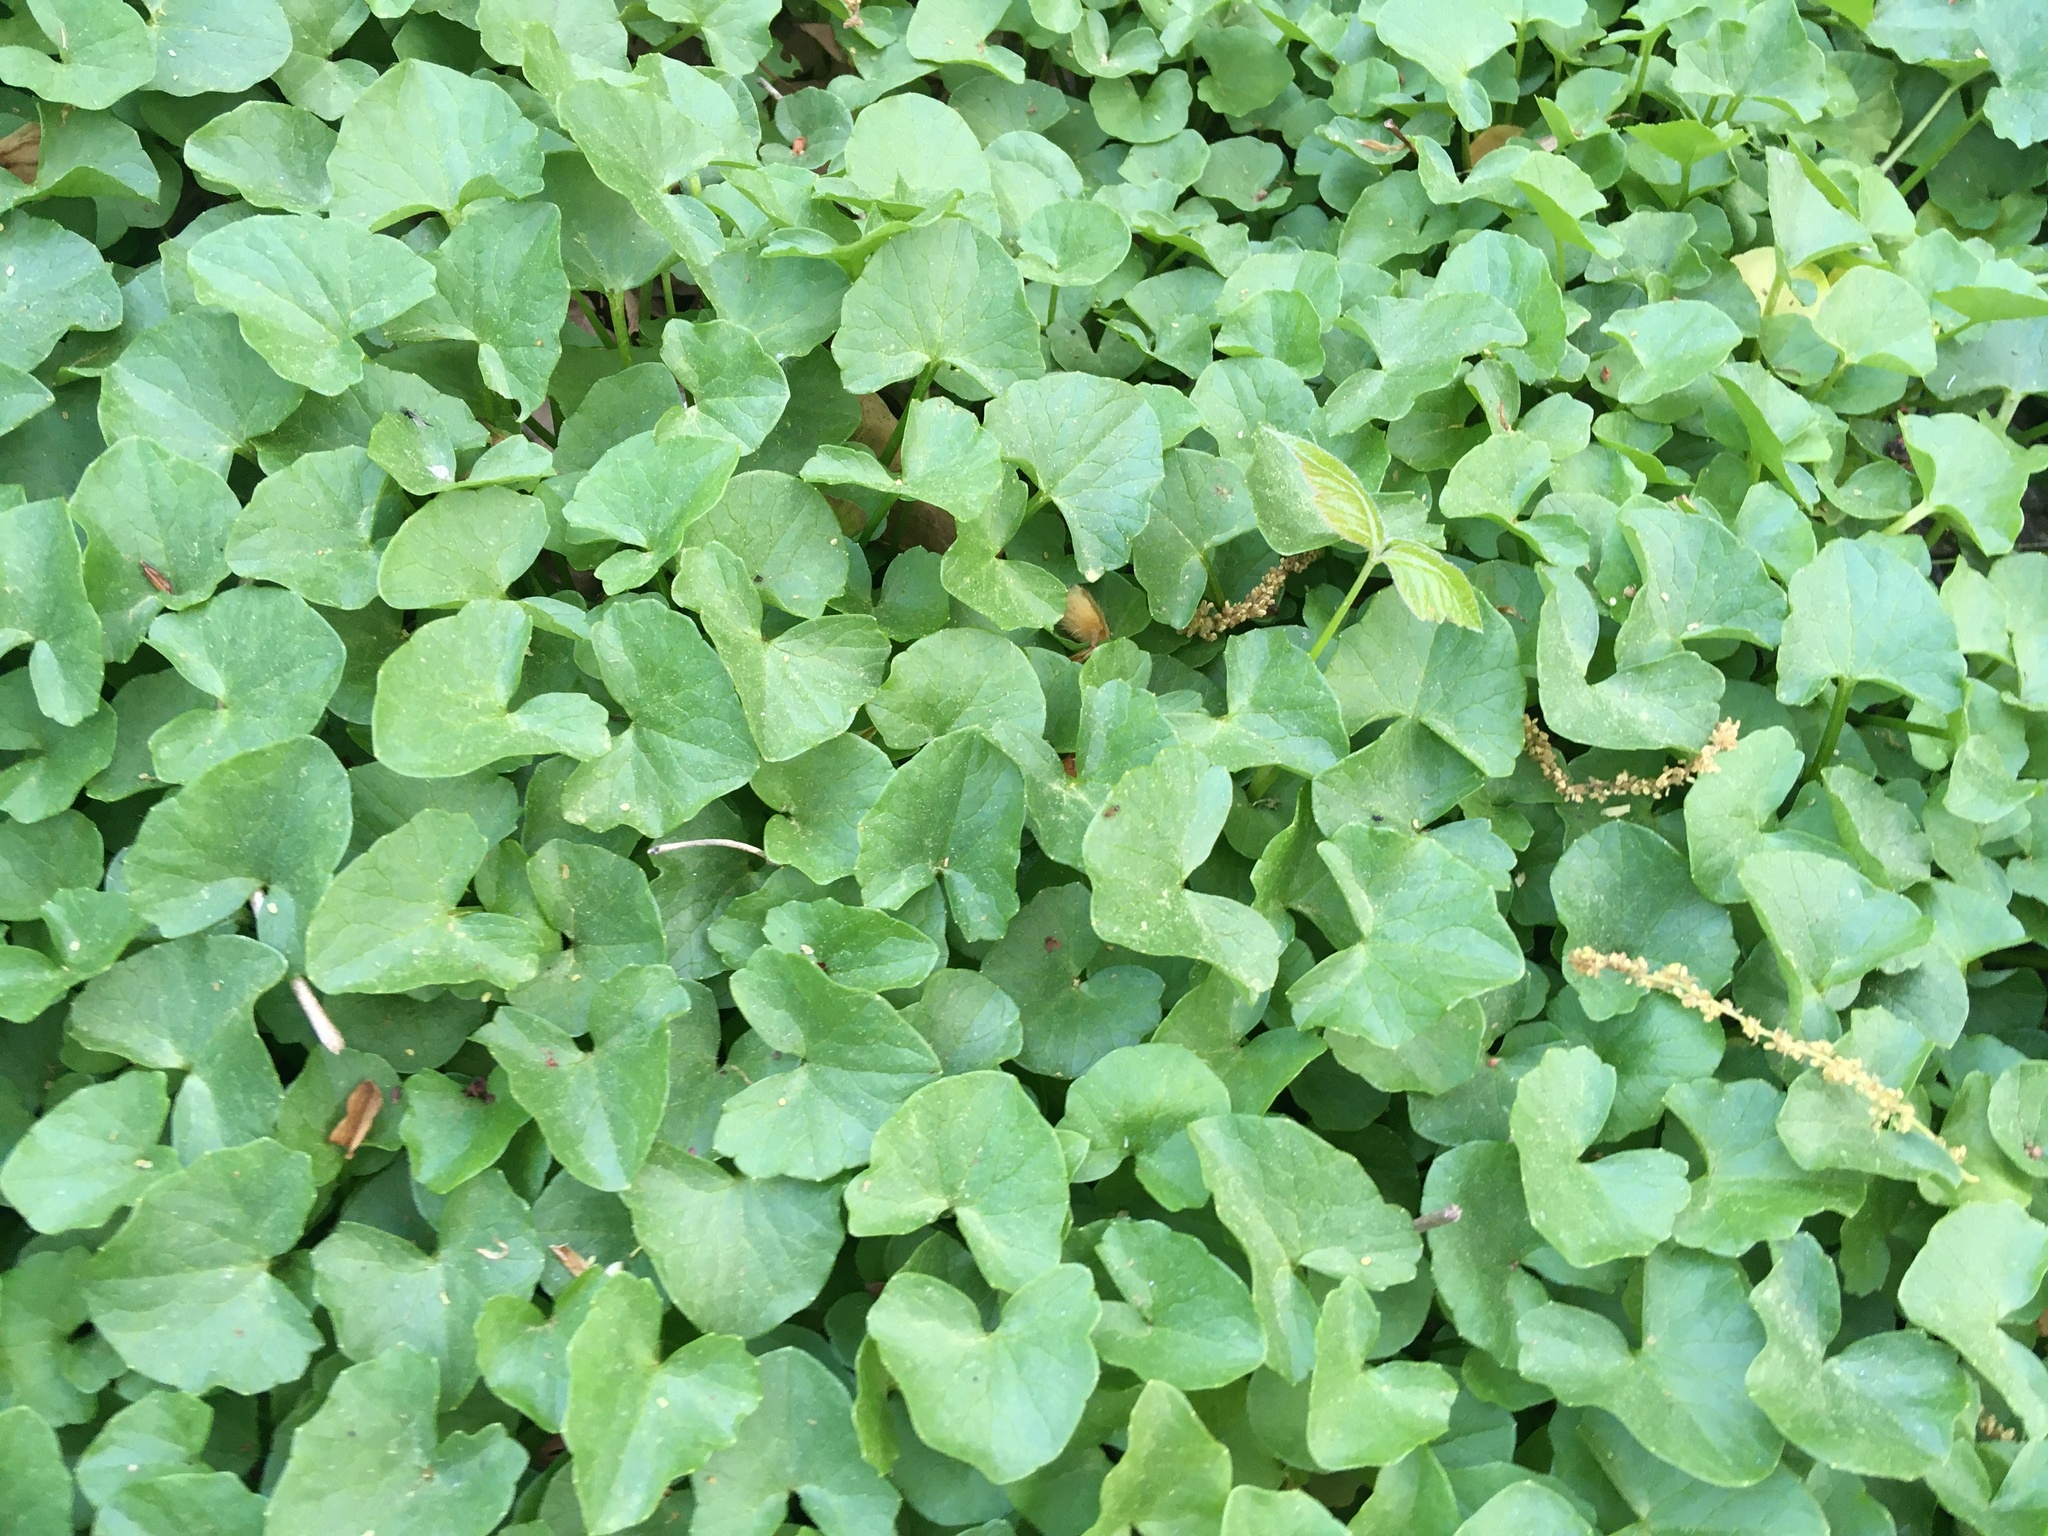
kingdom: Plantae
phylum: Tracheophyta
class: Magnoliopsida
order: Ranunculales
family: Ranunculaceae
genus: Ficaria
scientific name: Ficaria verna
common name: Lesser celandine
